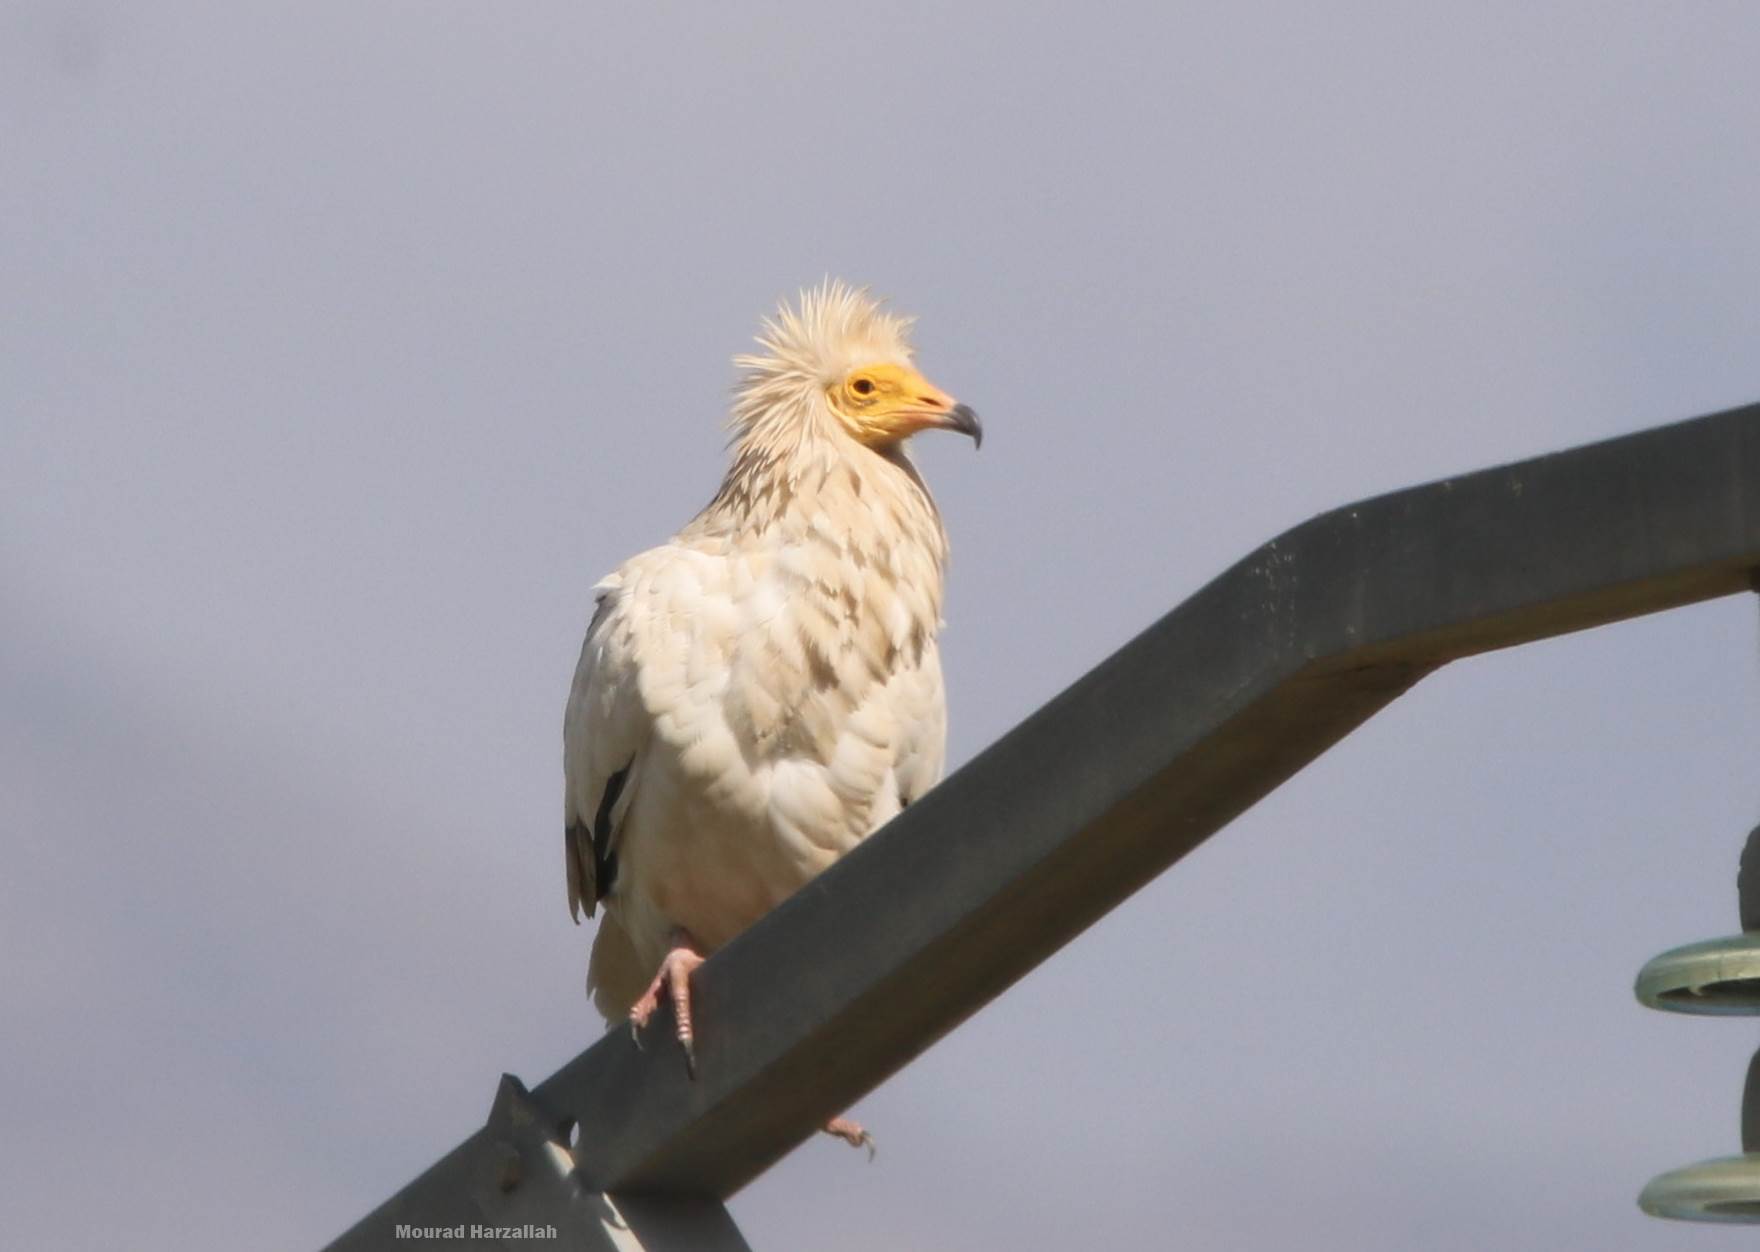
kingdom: Animalia
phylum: Chordata
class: Aves
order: Accipitriformes
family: Accipitridae
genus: Neophron
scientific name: Neophron percnopterus
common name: Egyptian vulture
